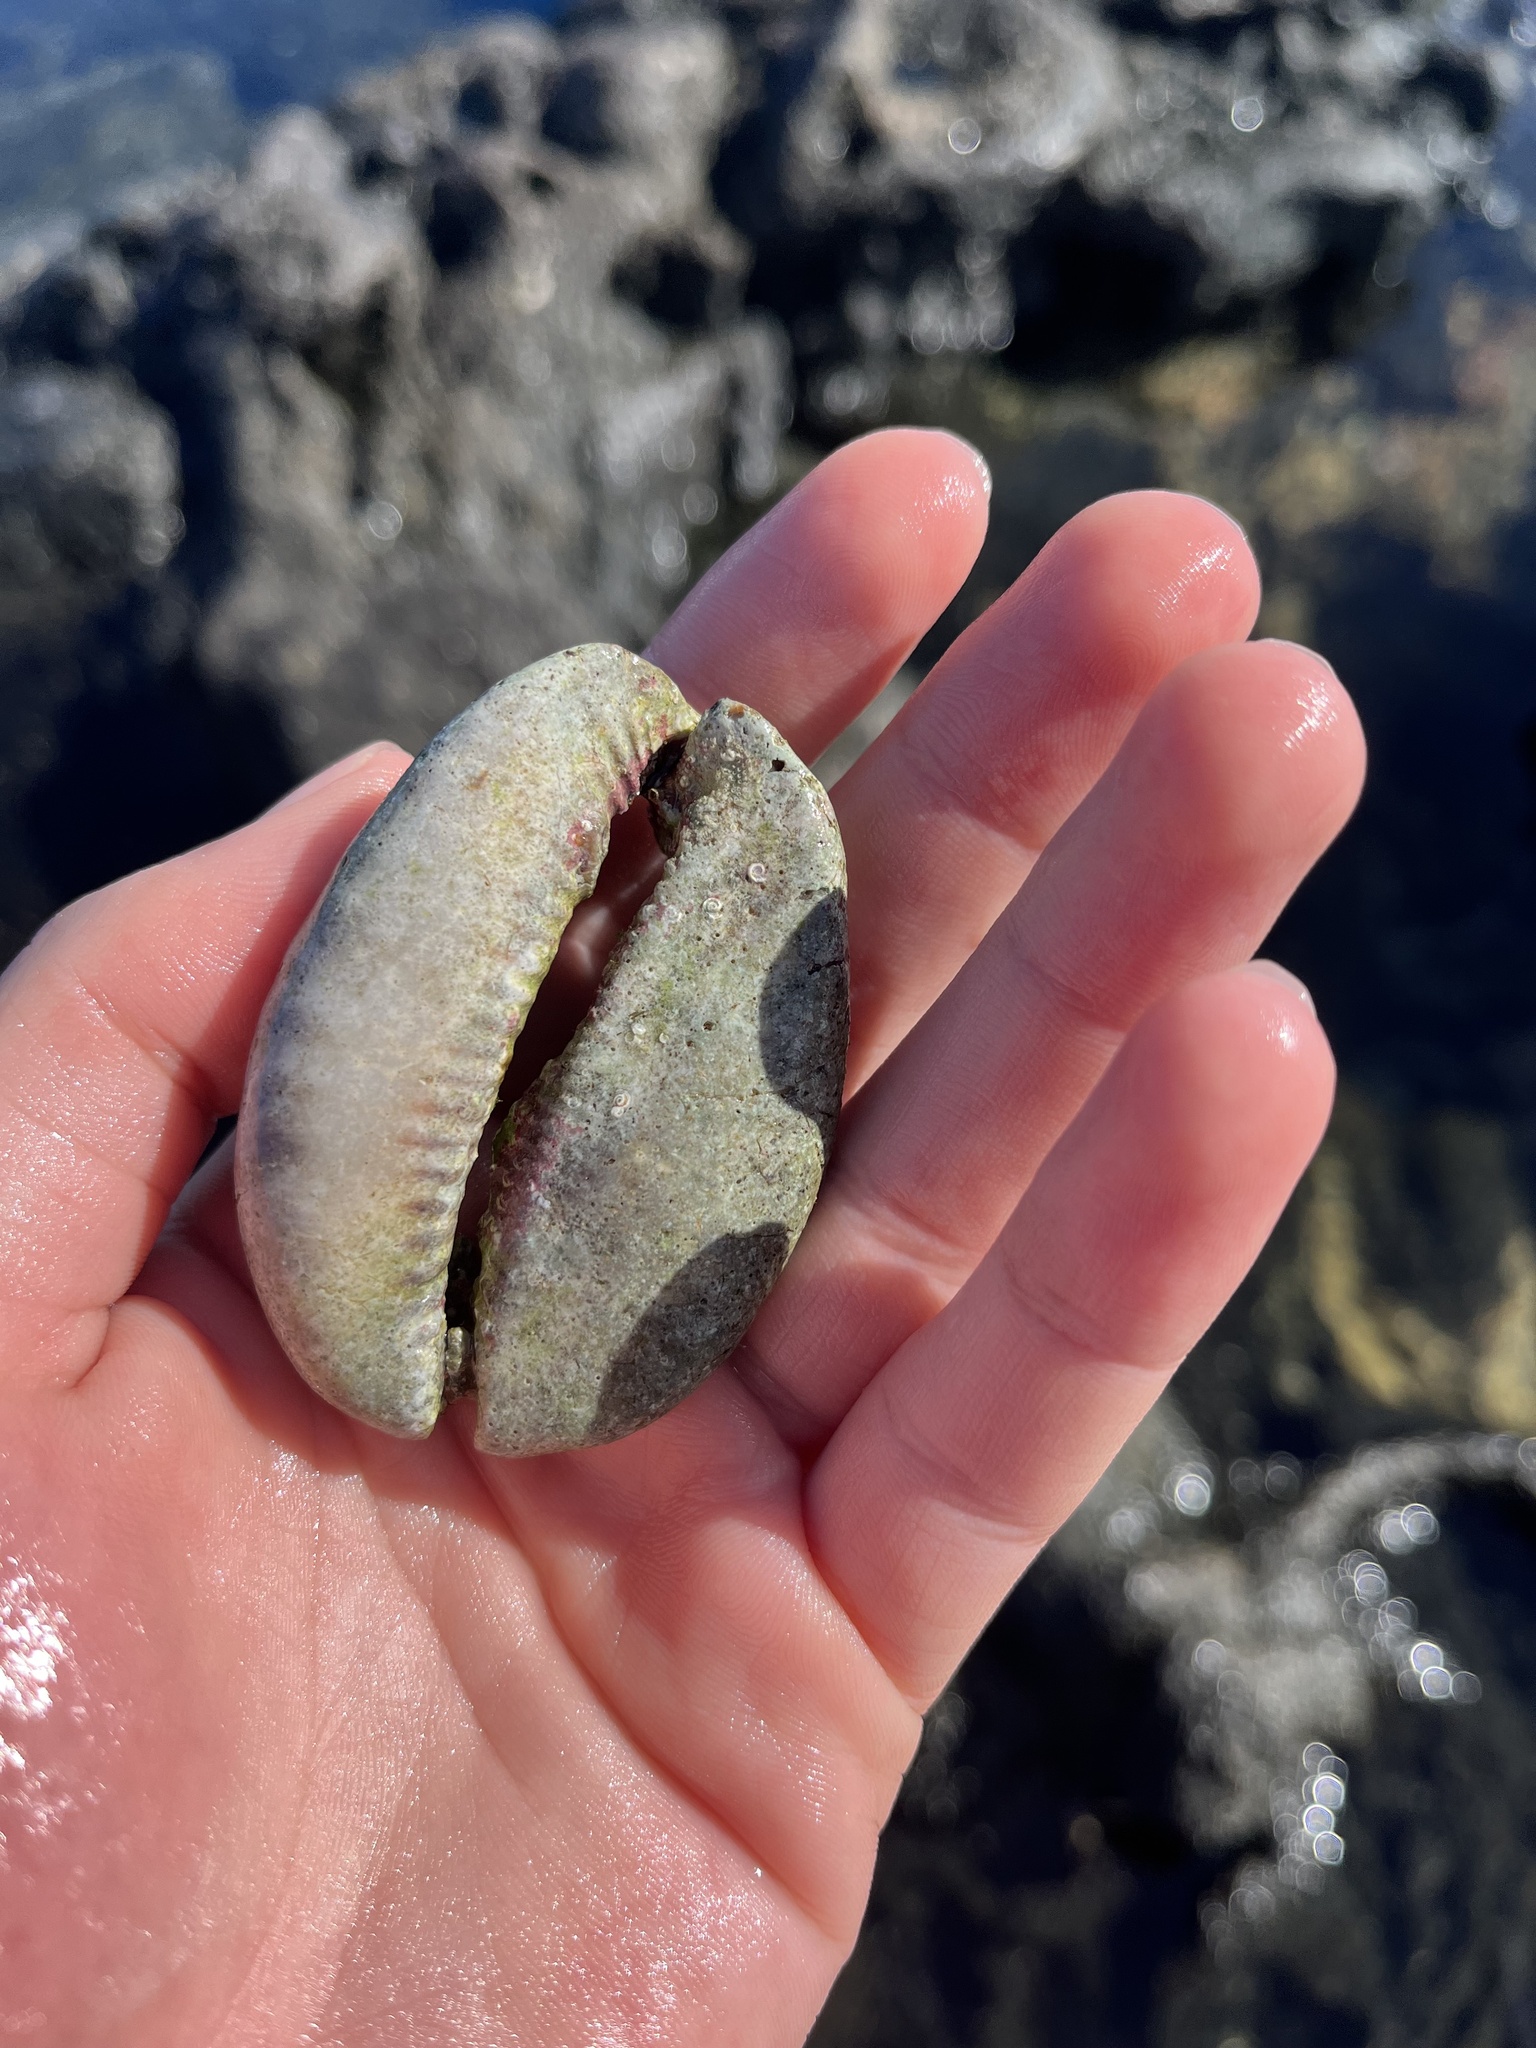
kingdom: Animalia
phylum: Mollusca
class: Gastropoda
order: Littorinimorpha
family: Cypraeidae
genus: Mauritia
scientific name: Mauritia maculifera
